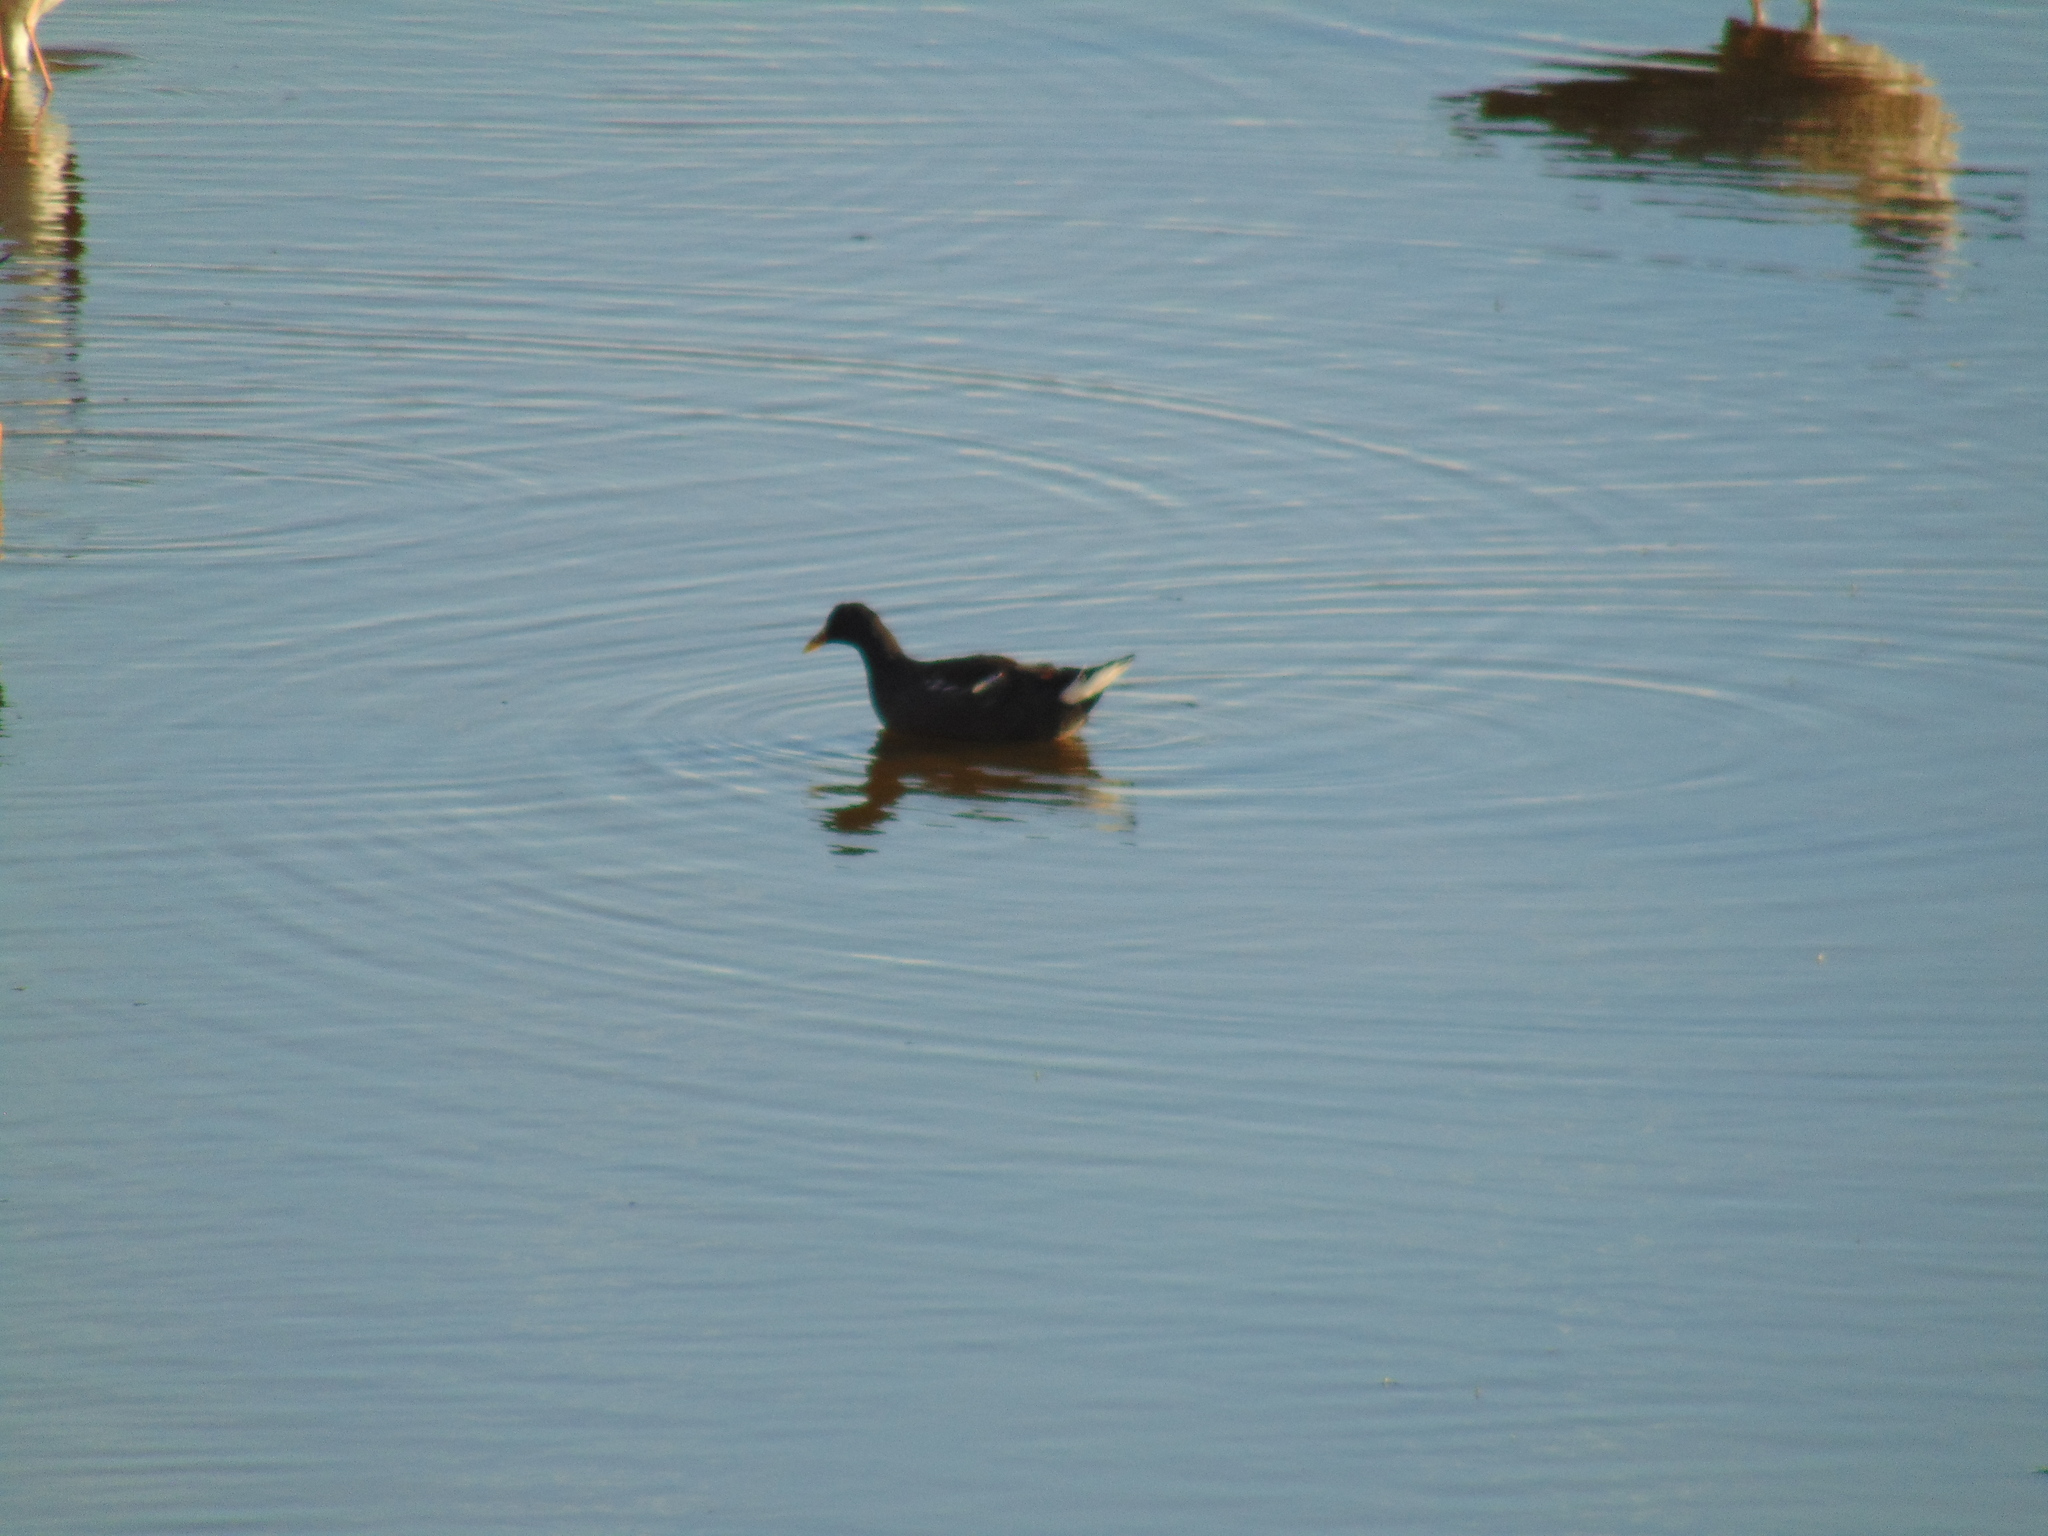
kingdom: Animalia
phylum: Chordata
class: Aves
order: Gruiformes
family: Rallidae
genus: Gallinula
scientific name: Gallinula chloropus
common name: Common moorhen
